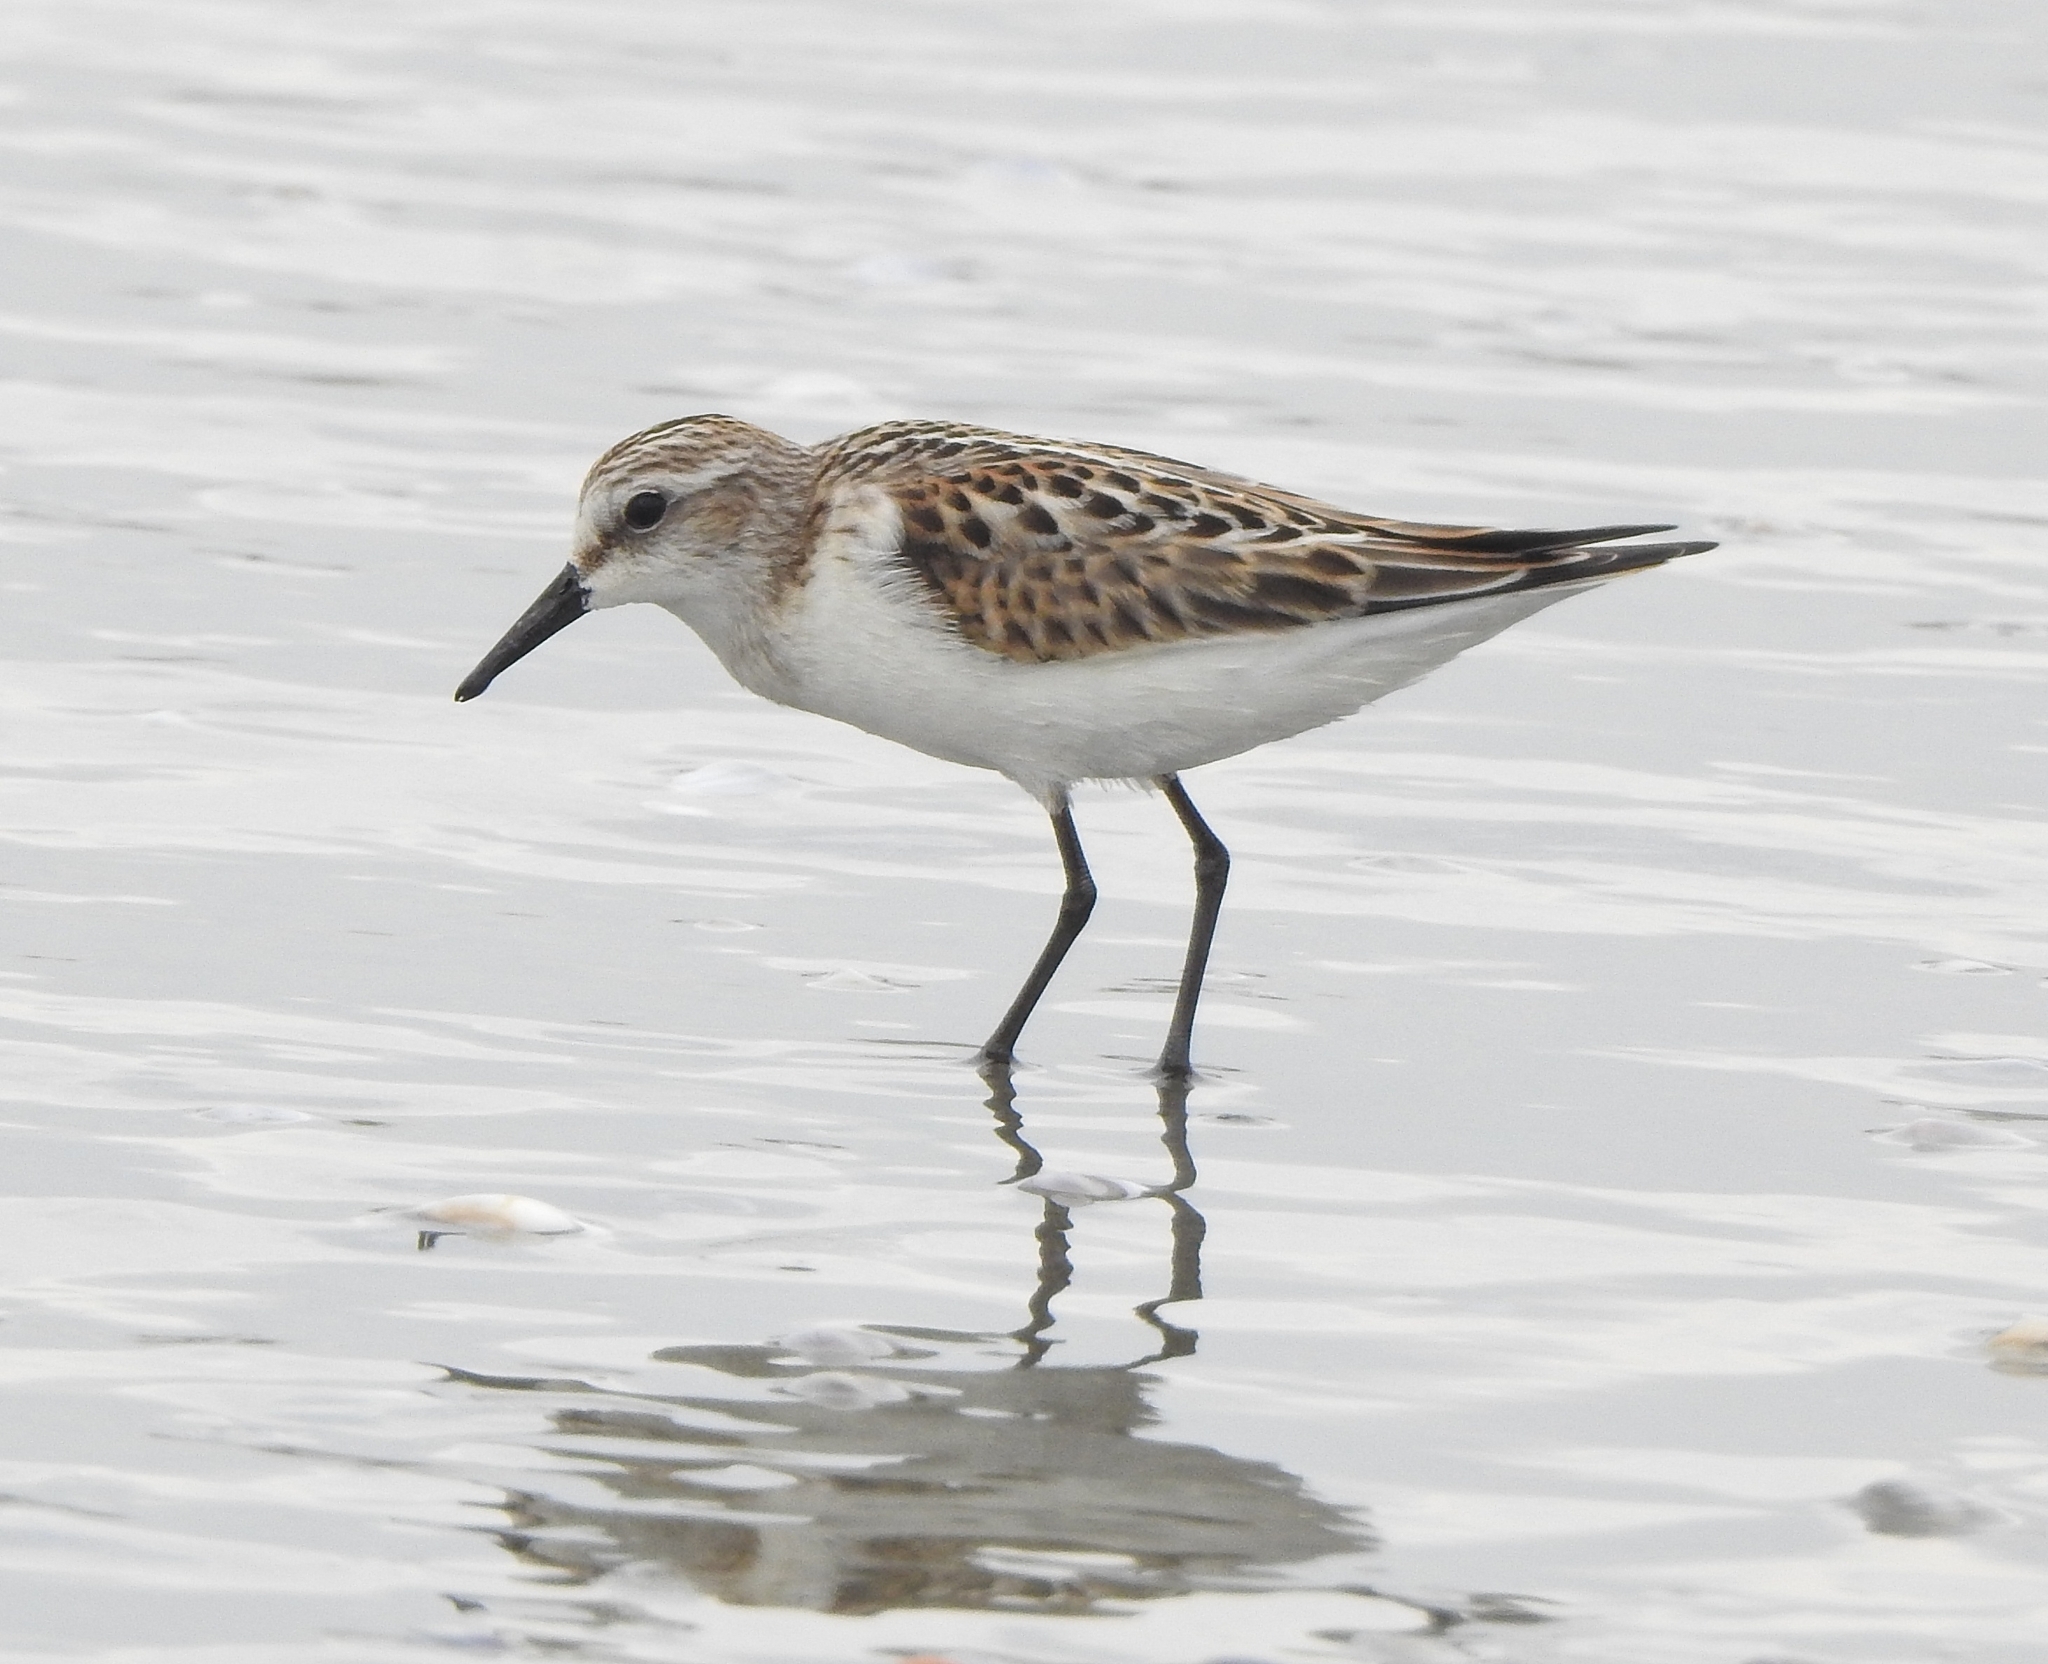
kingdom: Animalia
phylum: Chordata
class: Aves
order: Charadriiformes
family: Scolopacidae
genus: Calidris
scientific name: Calidris minuta
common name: Little stint
